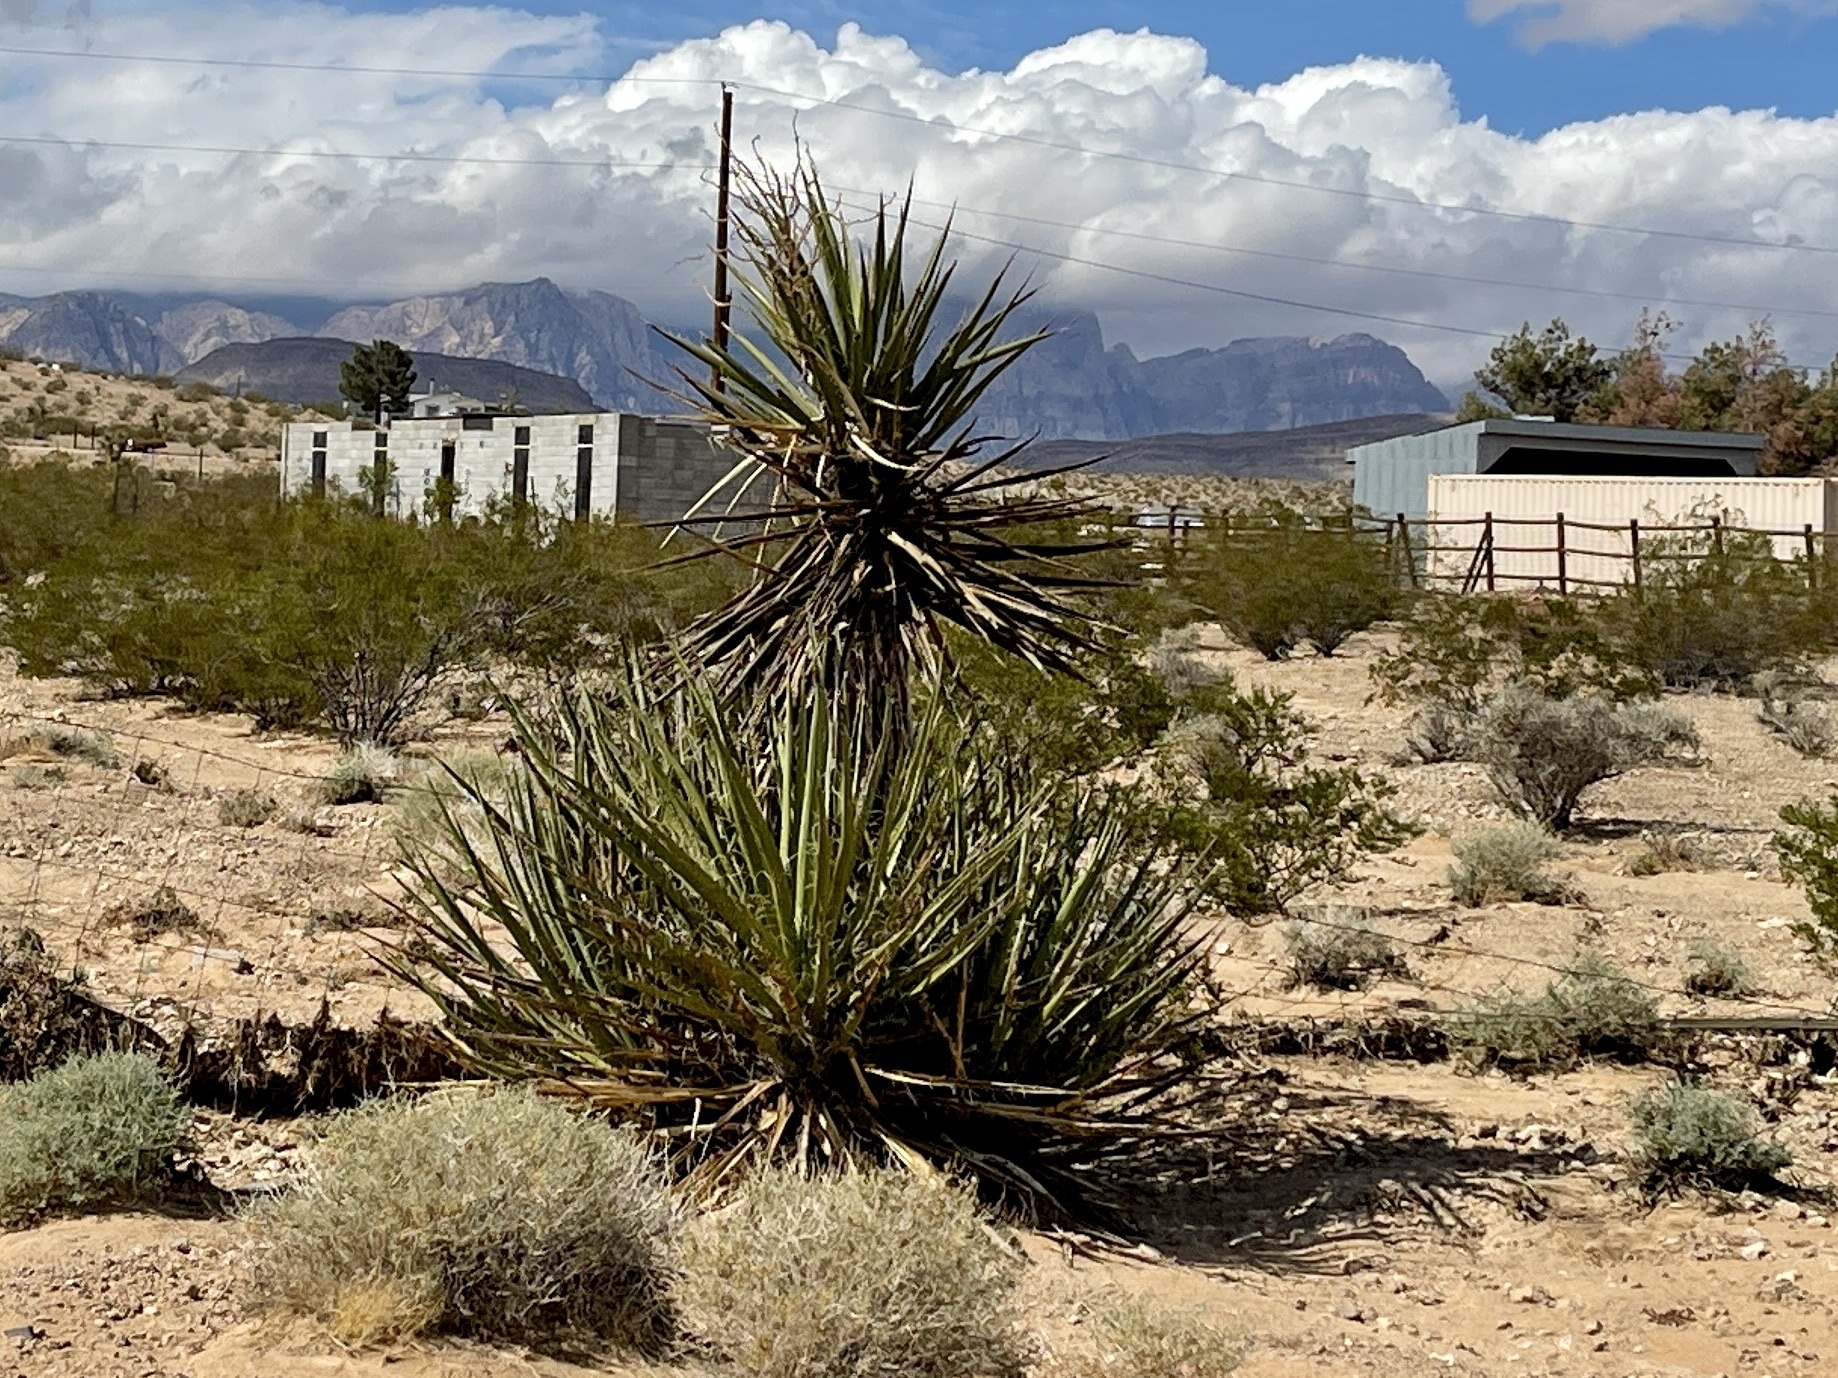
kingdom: Plantae
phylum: Tracheophyta
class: Liliopsida
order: Asparagales
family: Asparagaceae
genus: Yucca
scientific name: Yucca schidigera
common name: Mojave yucca
